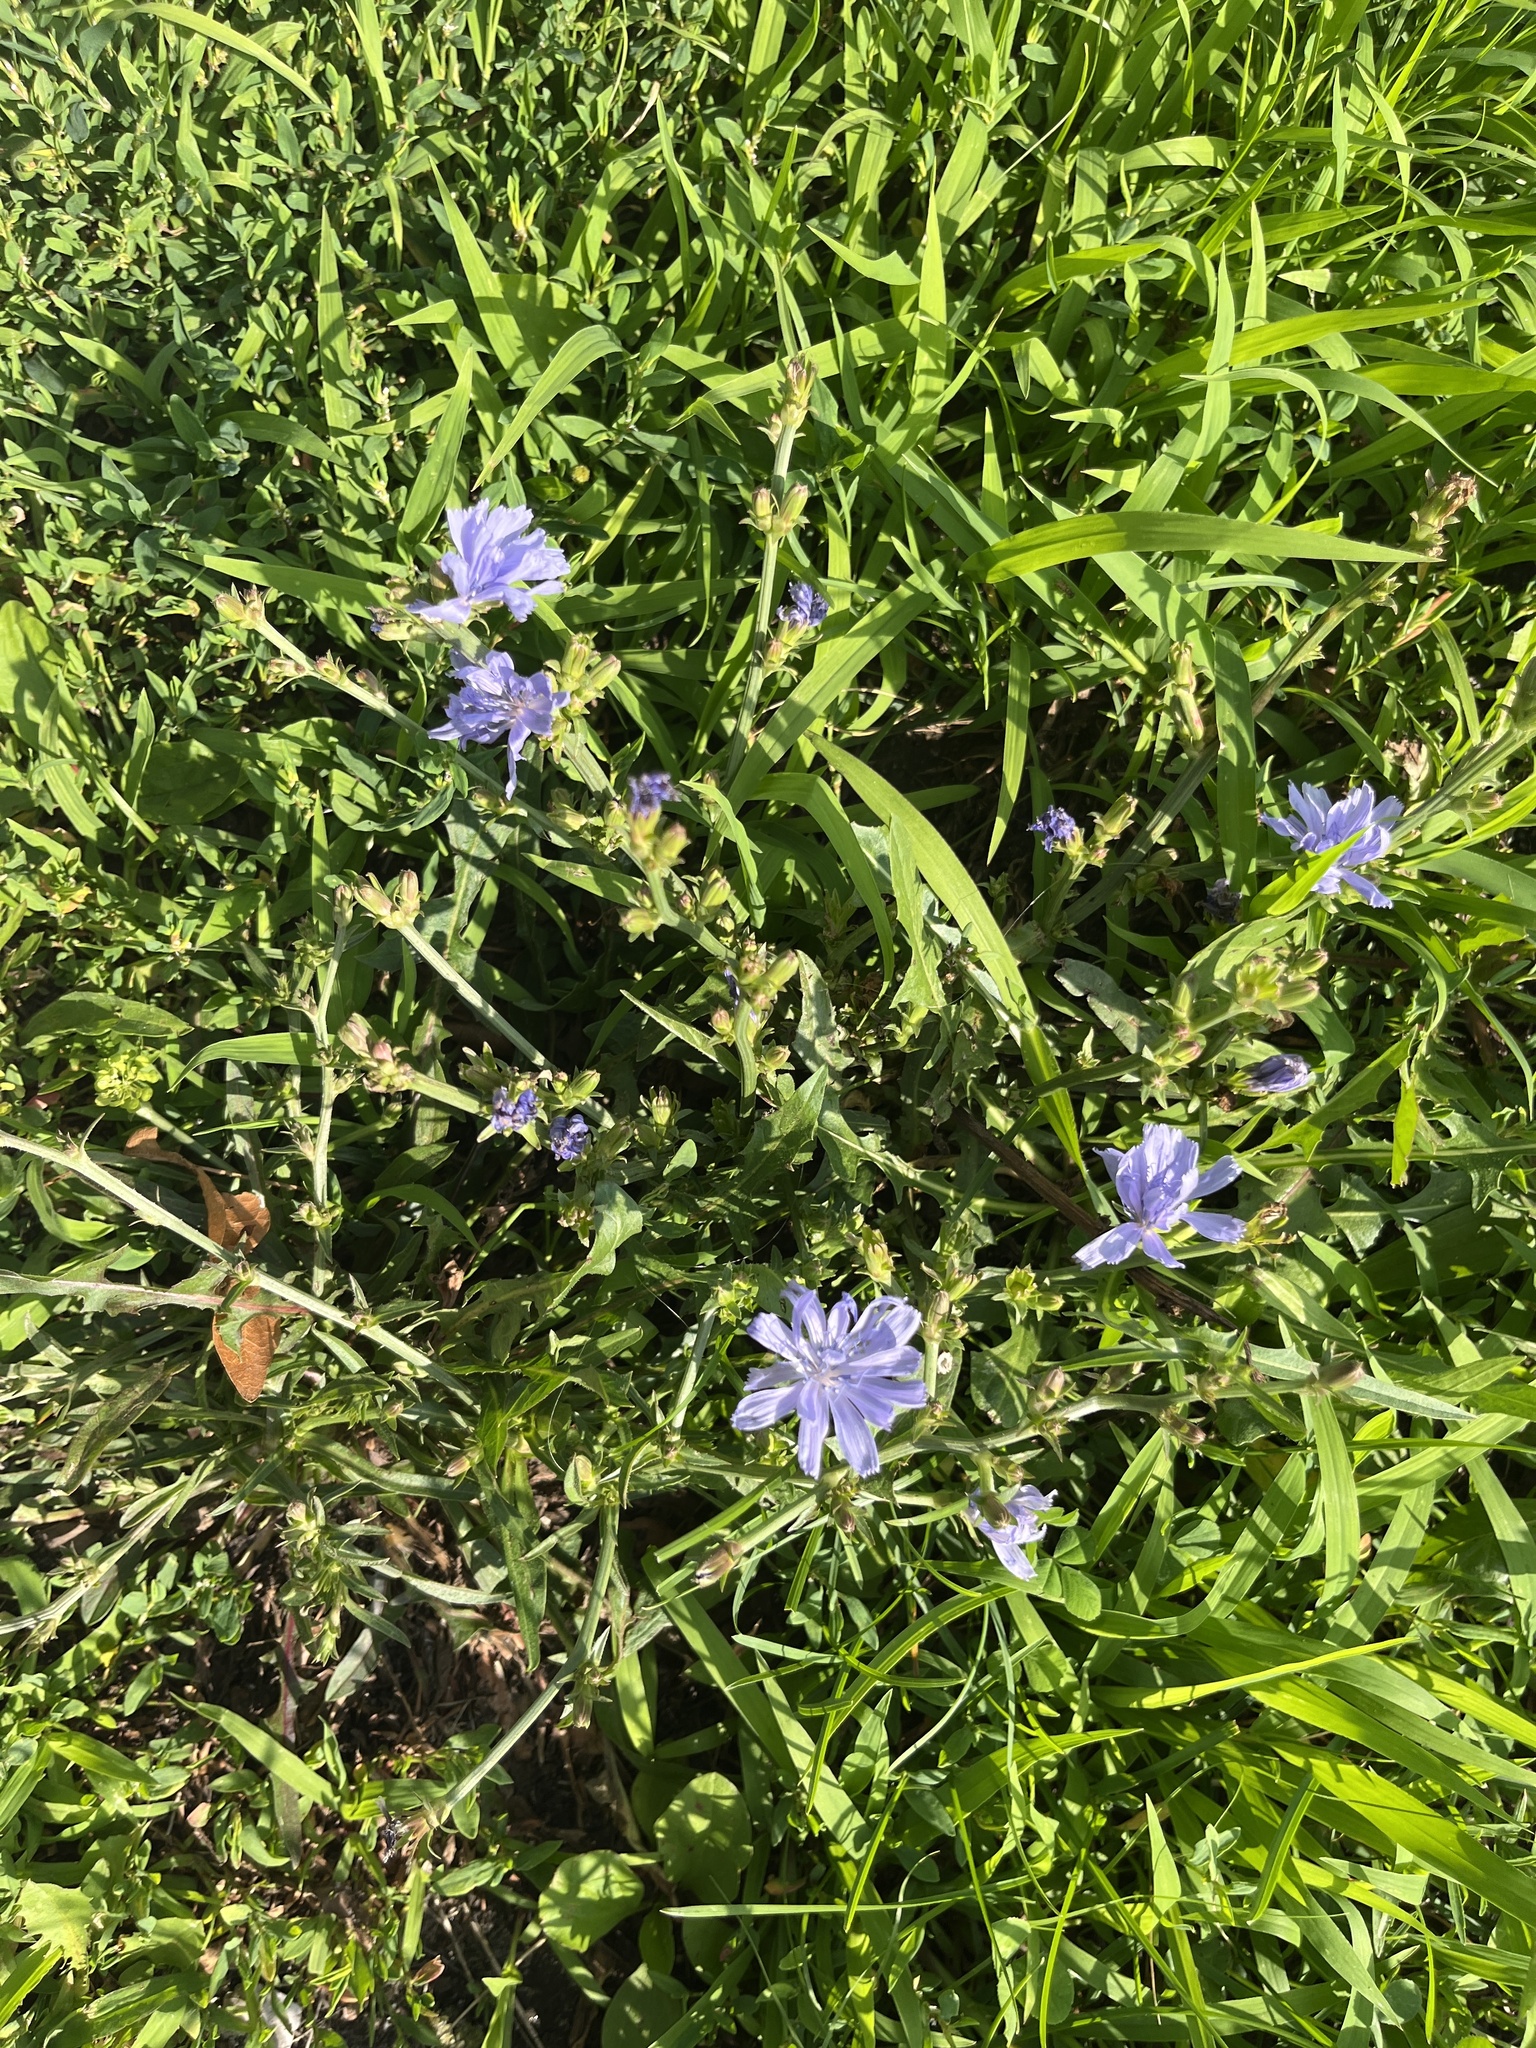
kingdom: Plantae
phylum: Tracheophyta
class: Magnoliopsida
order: Asterales
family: Asteraceae
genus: Cichorium
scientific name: Cichorium intybus
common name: Chicory
